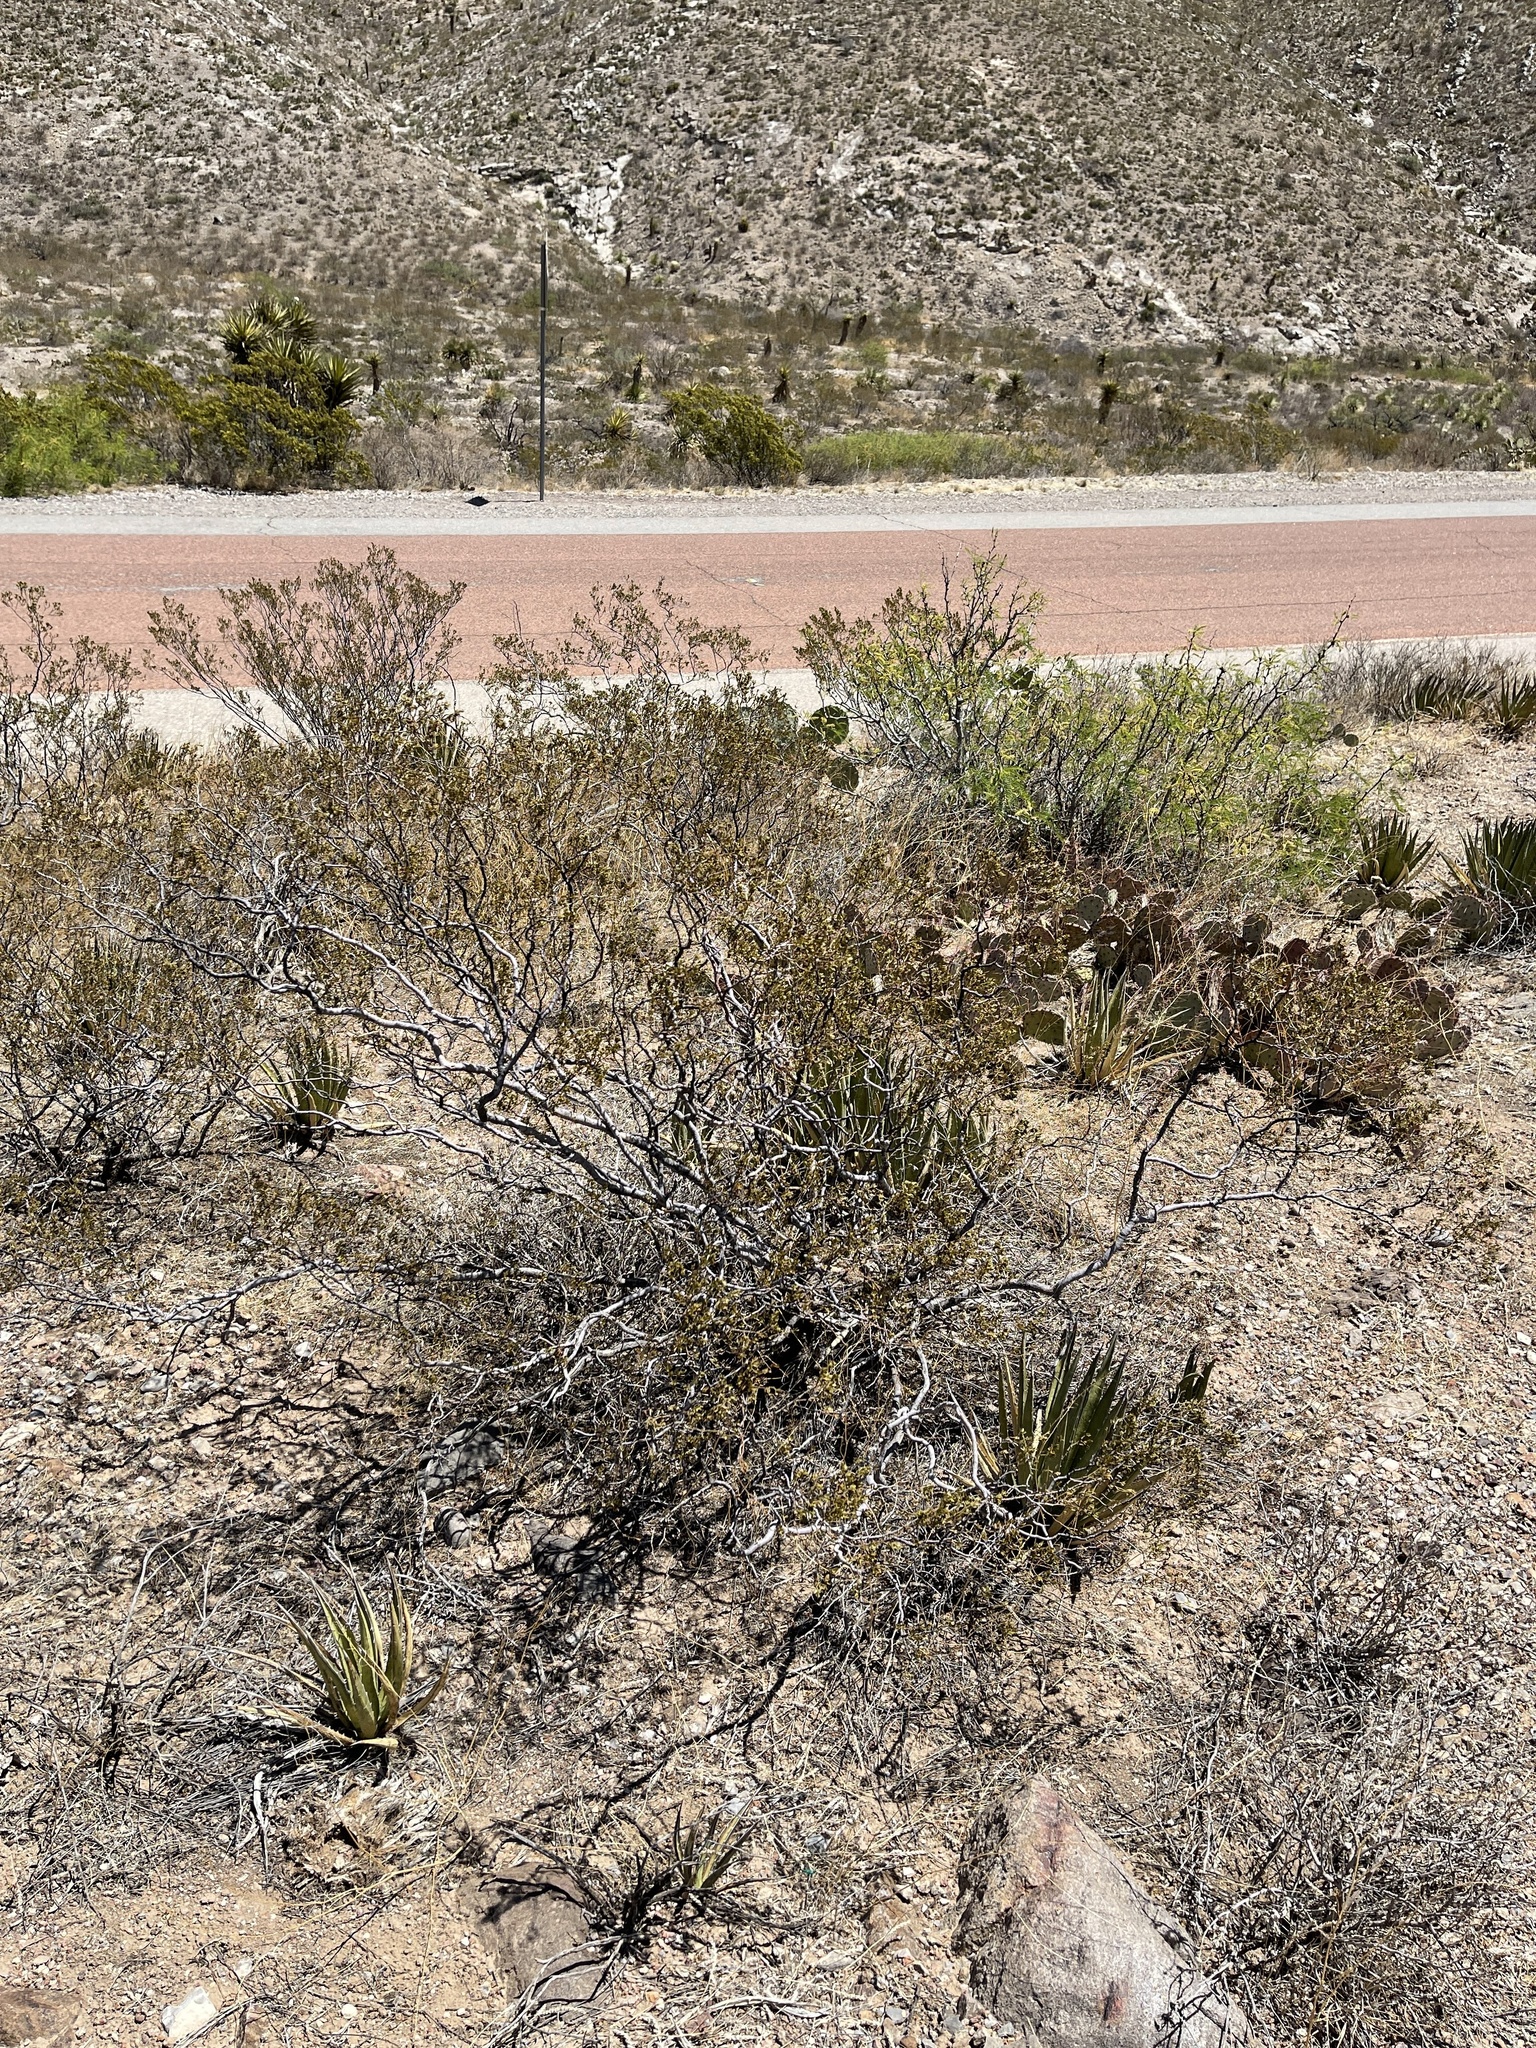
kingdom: Plantae
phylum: Tracheophyta
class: Magnoliopsida
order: Zygophyllales
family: Zygophyllaceae
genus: Larrea
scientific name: Larrea tridentata
